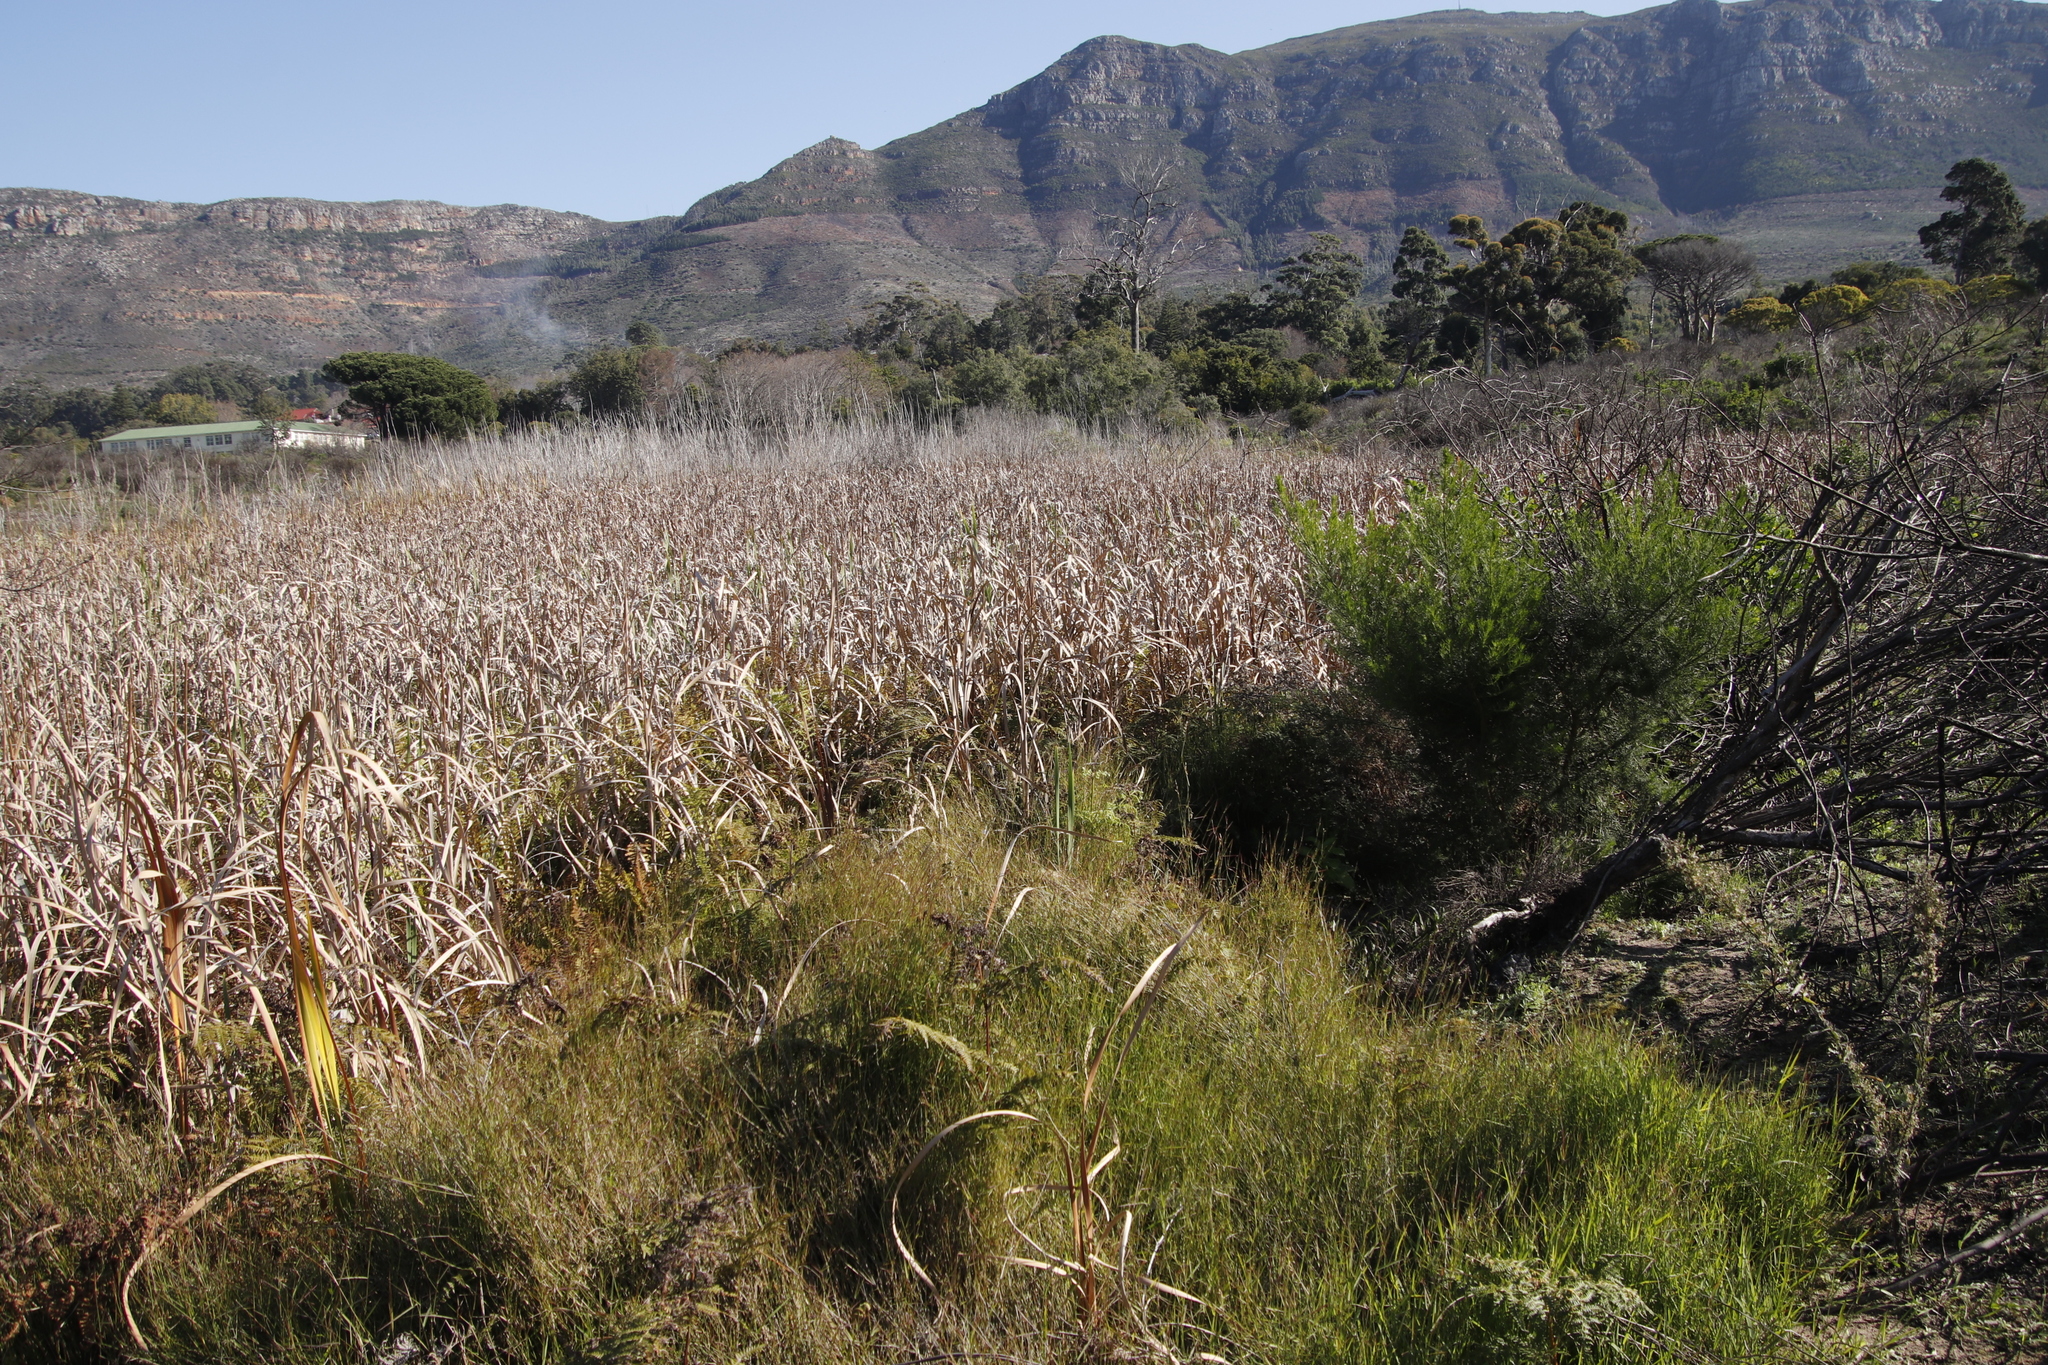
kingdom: Plantae
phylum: Tracheophyta
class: Liliopsida
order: Poales
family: Typhaceae
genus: Typha
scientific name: Typha capensis
